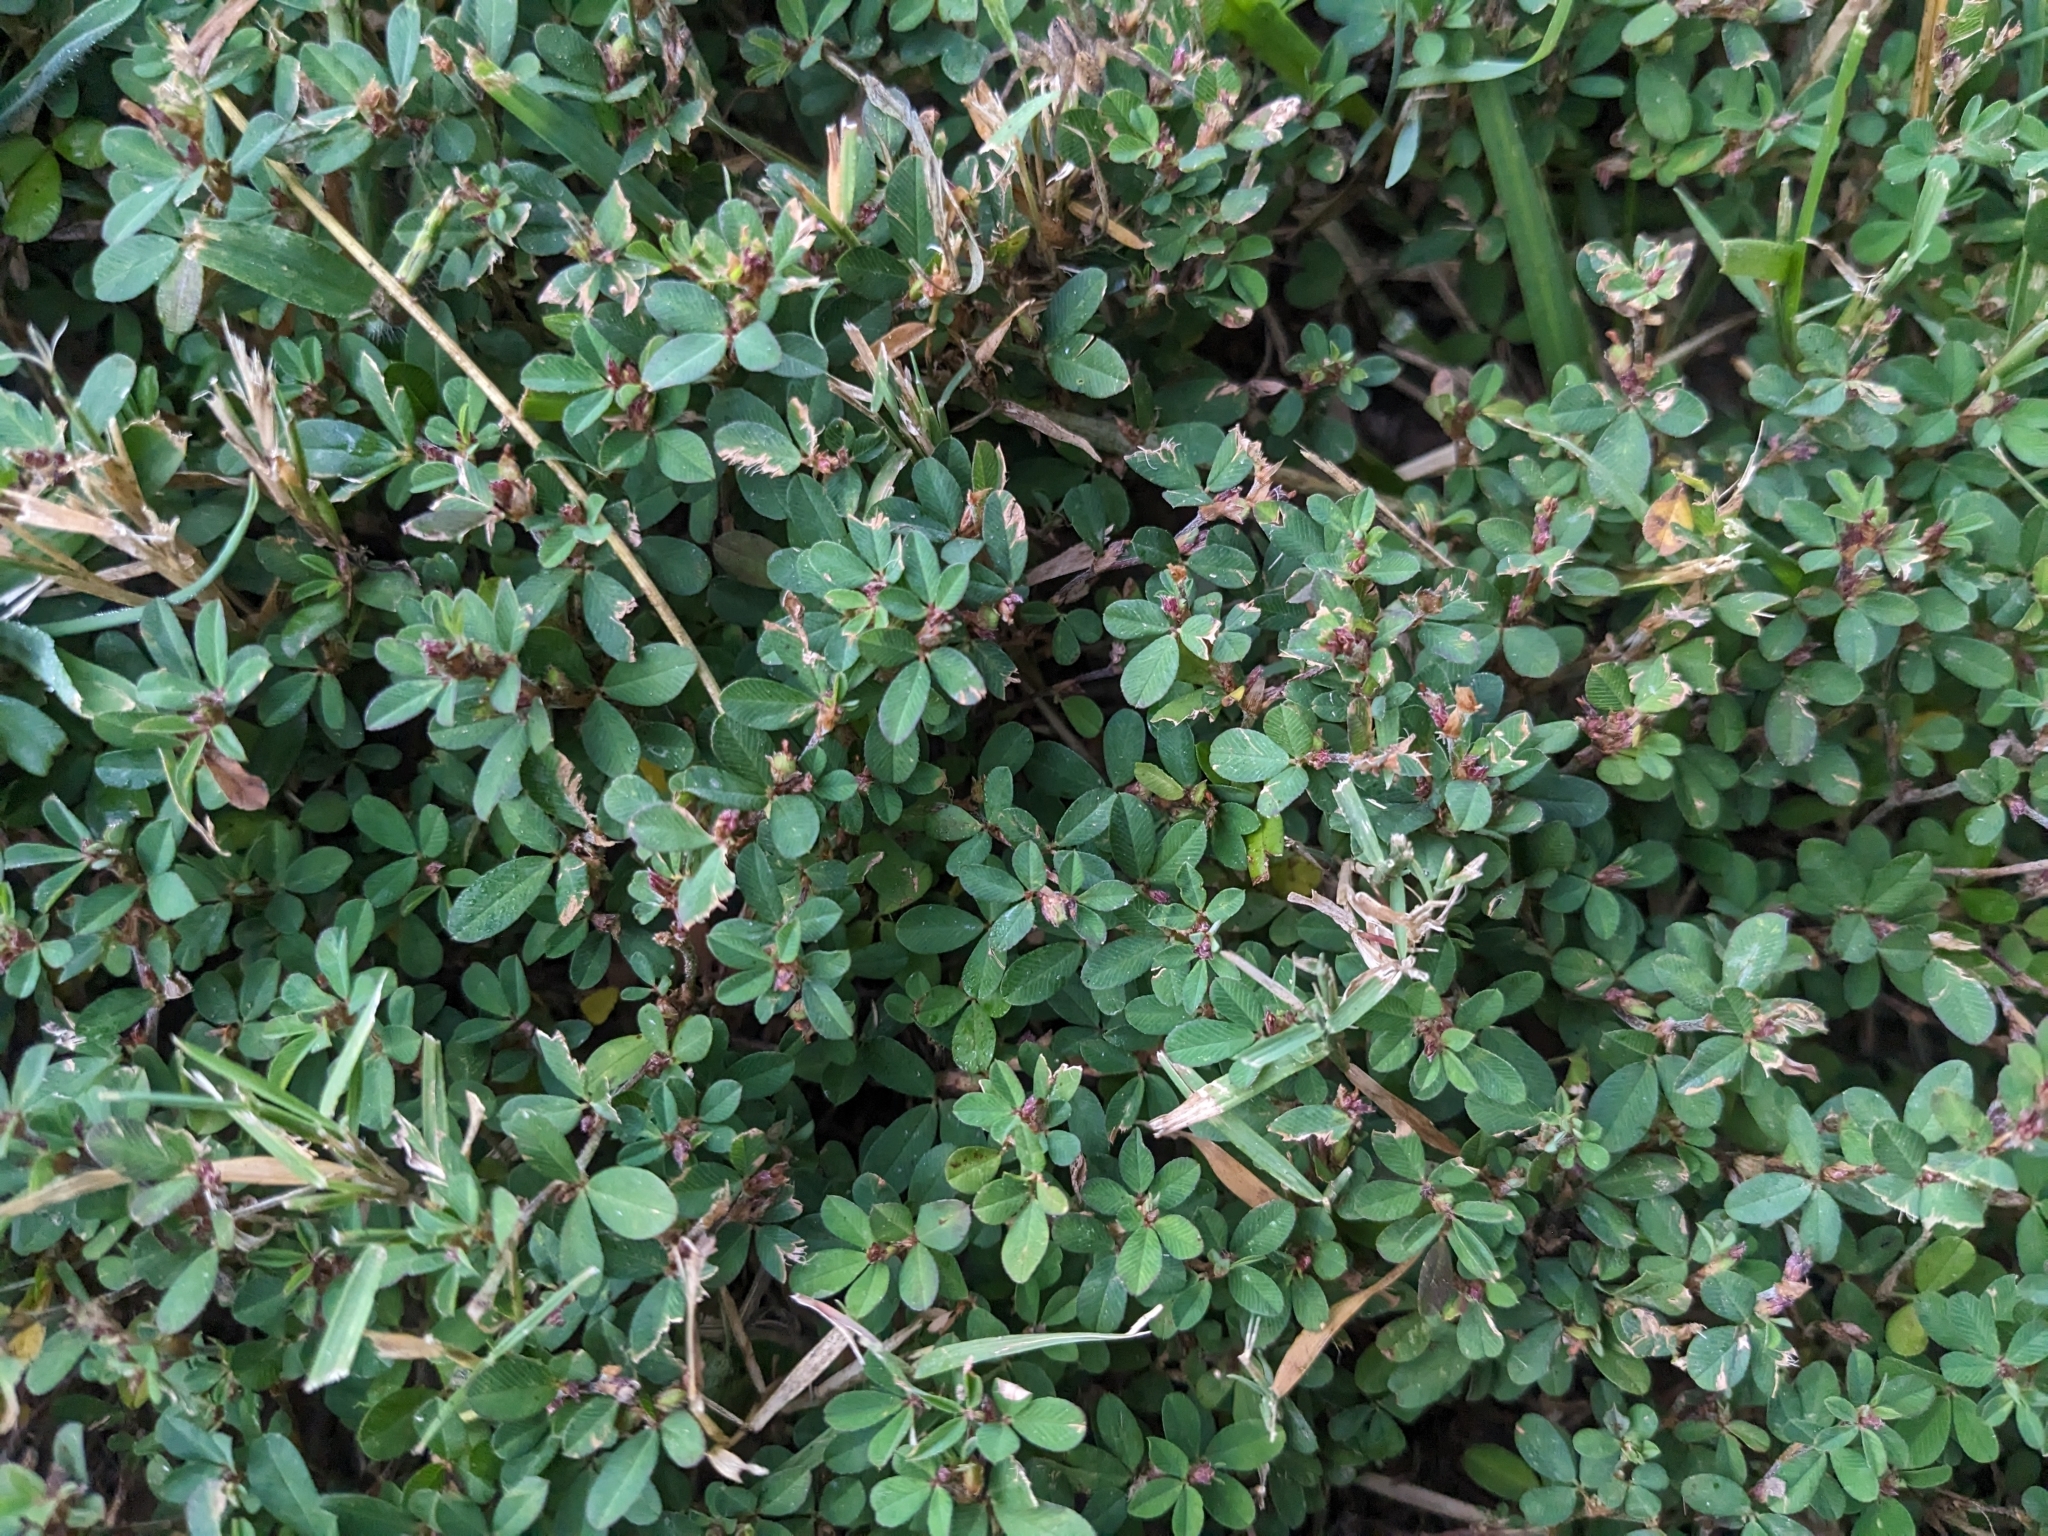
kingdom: Plantae
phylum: Tracheophyta
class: Magnoliopsida
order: Fabales
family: Fabaceae
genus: Kummerowia
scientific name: Kummerowia striata
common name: Japanese clover
